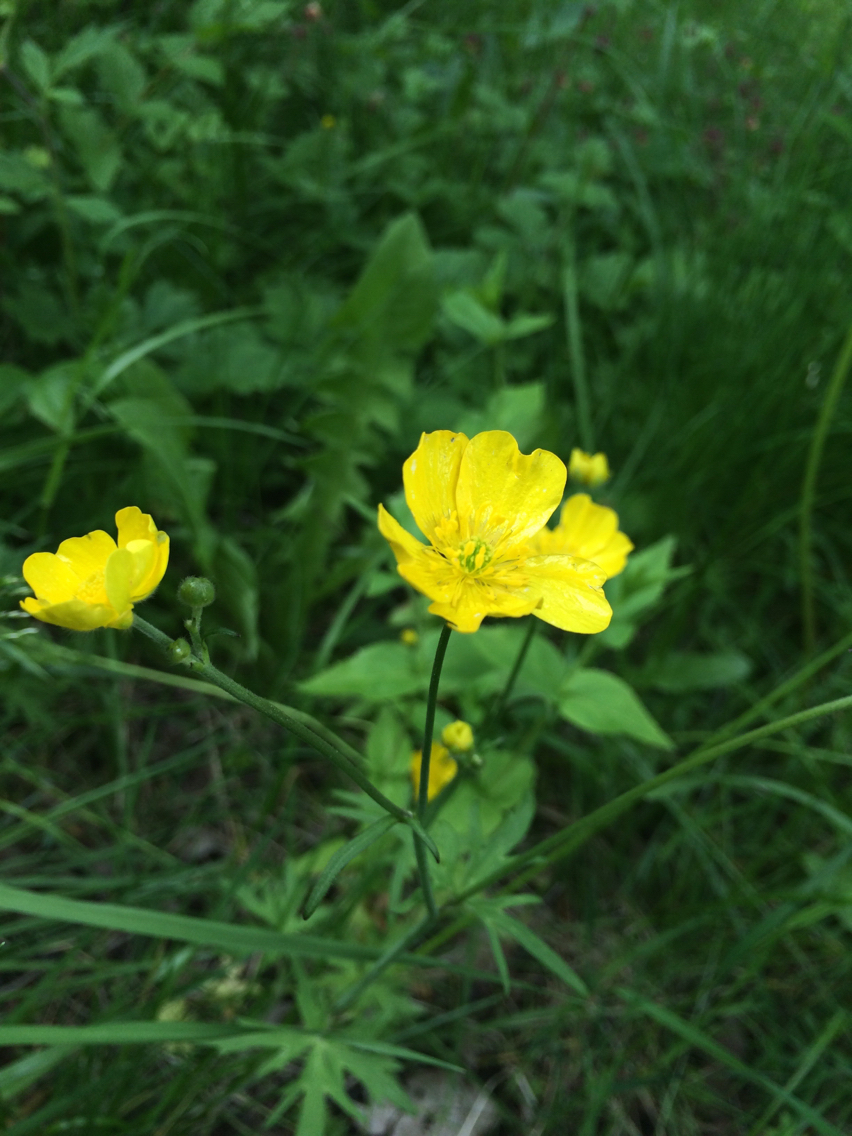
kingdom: Plantae
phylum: Tracheophyta
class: Magnoliopsida
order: Ranunculales
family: Ranunculaceae
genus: Ranunculus
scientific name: Ranunculus acris
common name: Meadow buttercup
